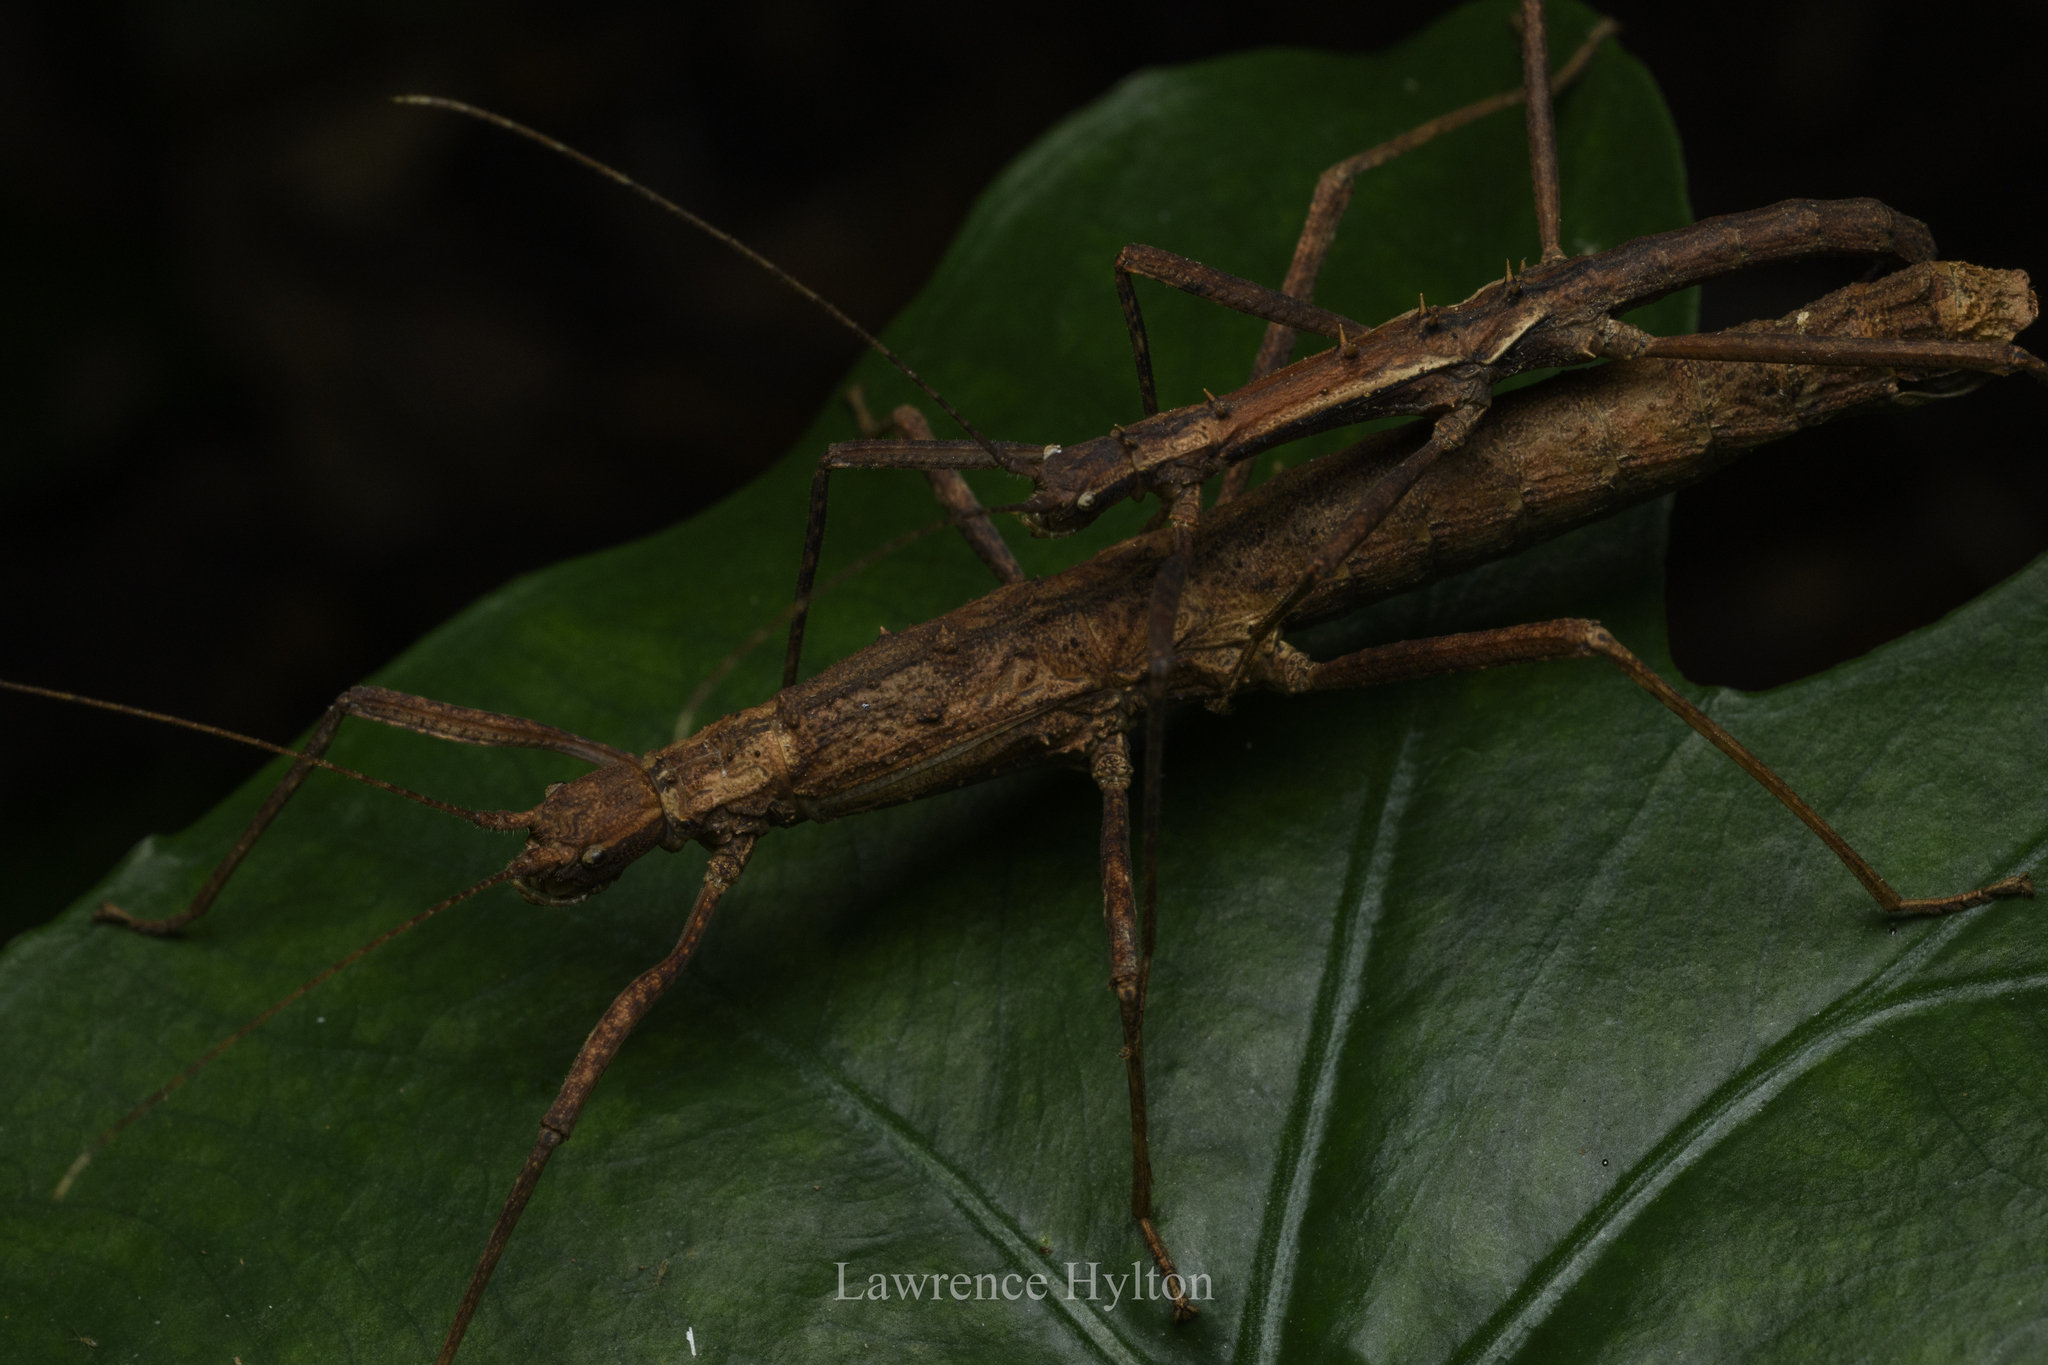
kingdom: Animalia
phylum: Arthropoda
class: Insecta
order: Phasmida
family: Lonchodidae
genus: Neohirasea
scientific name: Neohirasea hongkongensis
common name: Hong kong spiny stick insect
